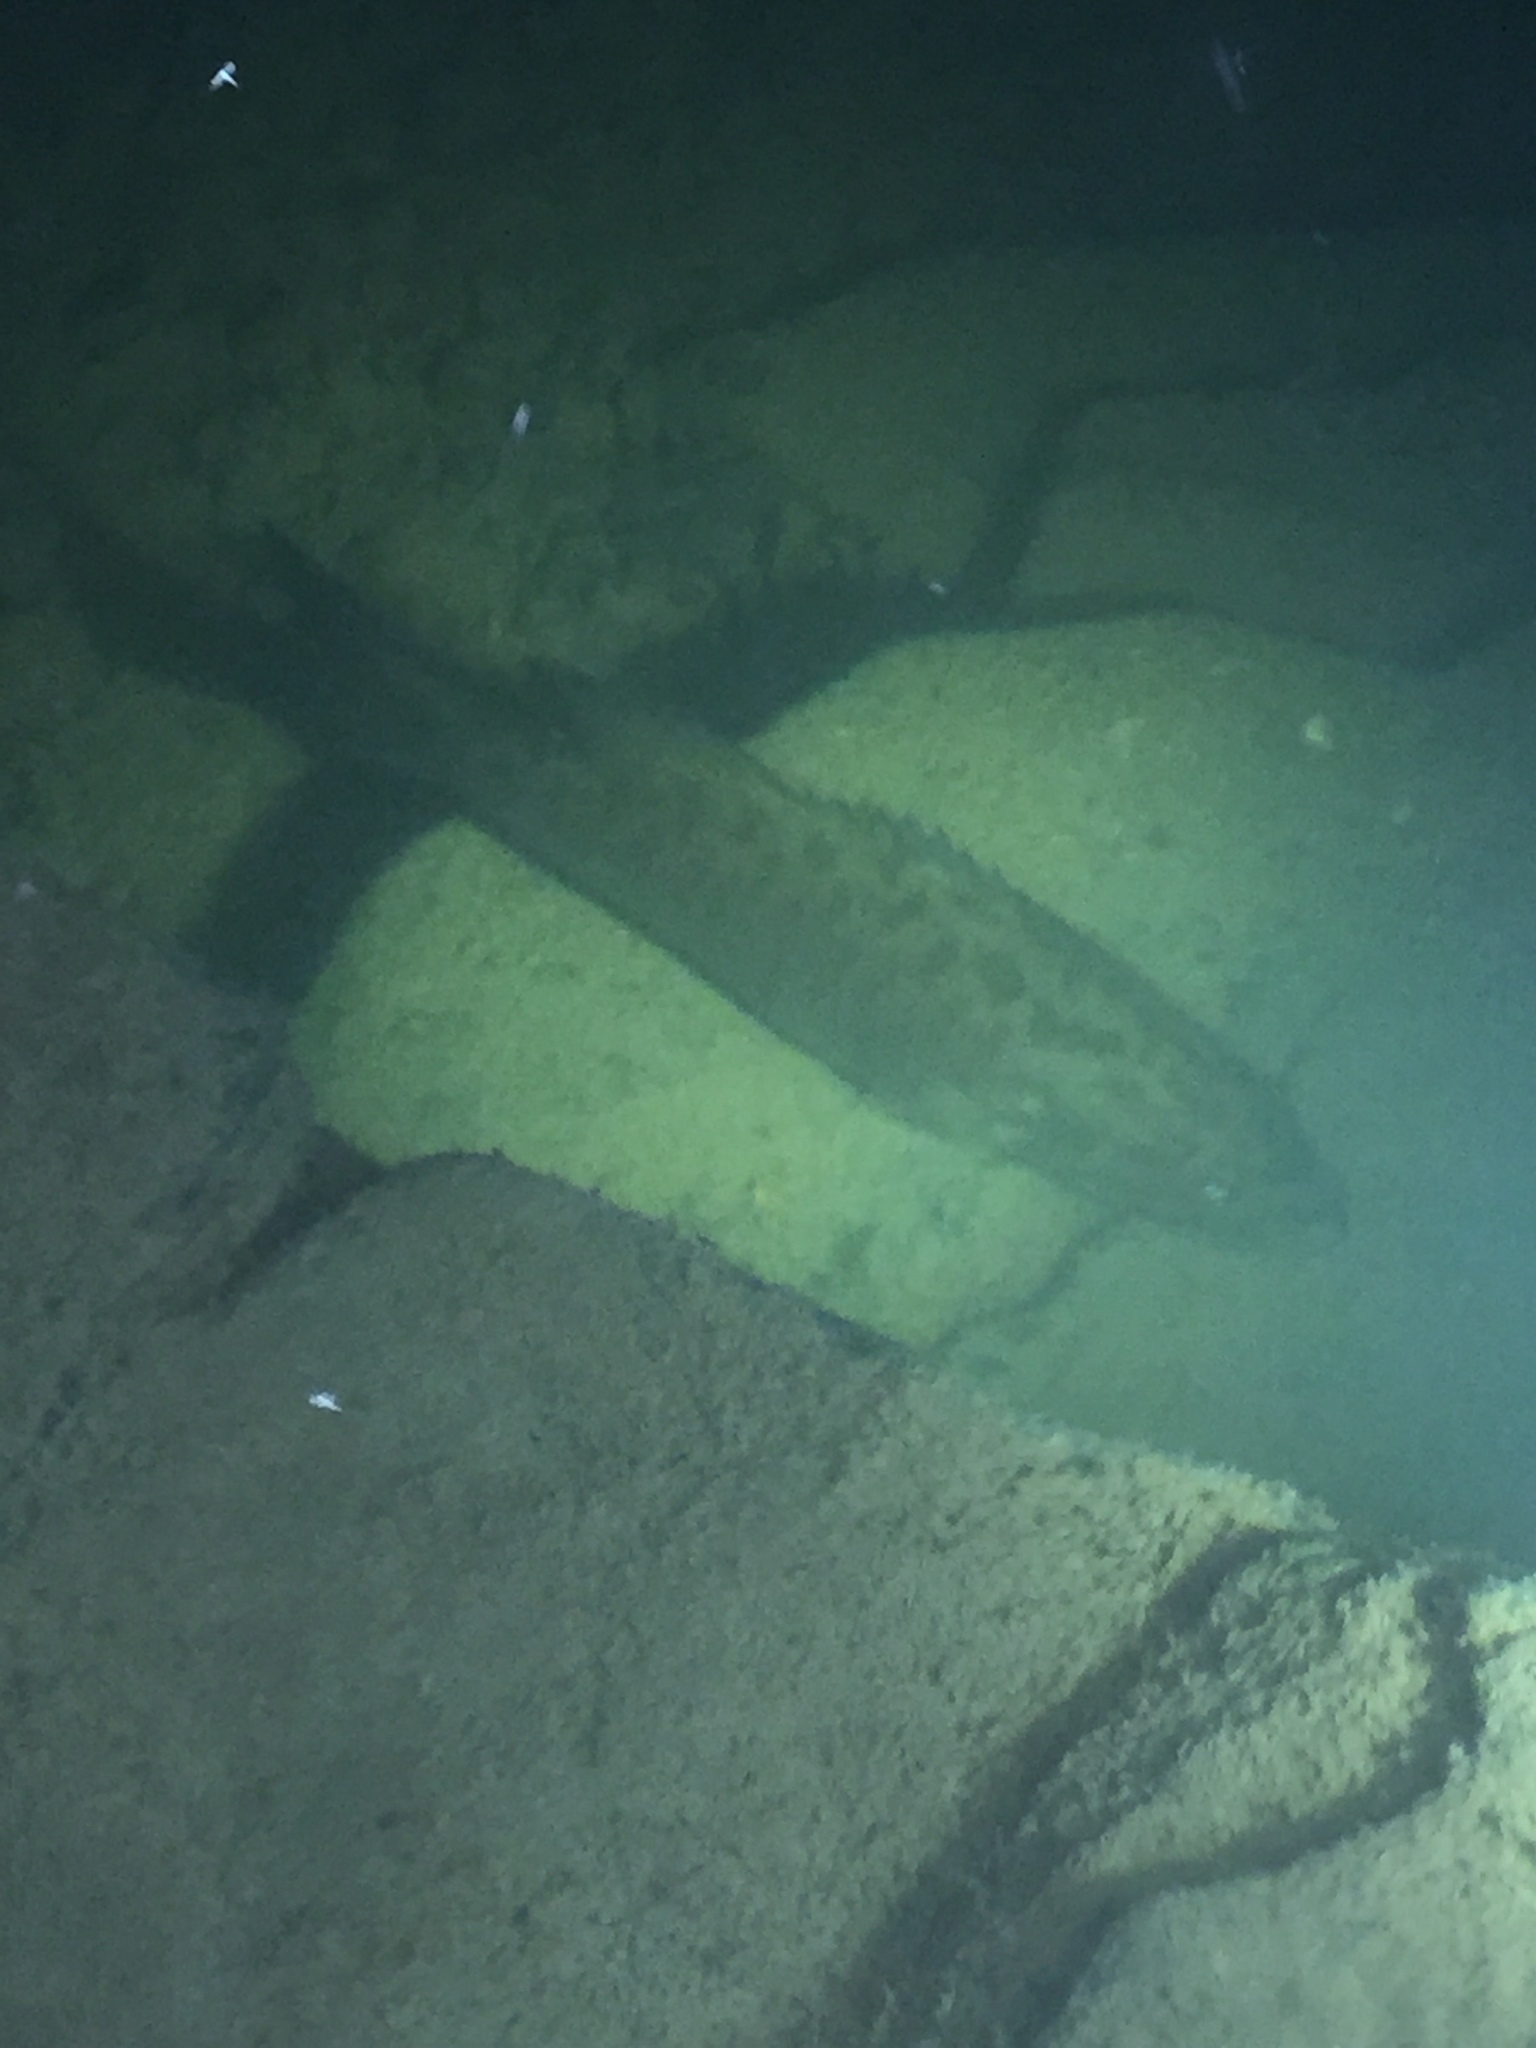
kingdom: Animalia
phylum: Chordata
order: Perciformes
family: Centrarchidae
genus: Micropterus
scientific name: Micropterus dolomieu
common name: Smallmouth bass
